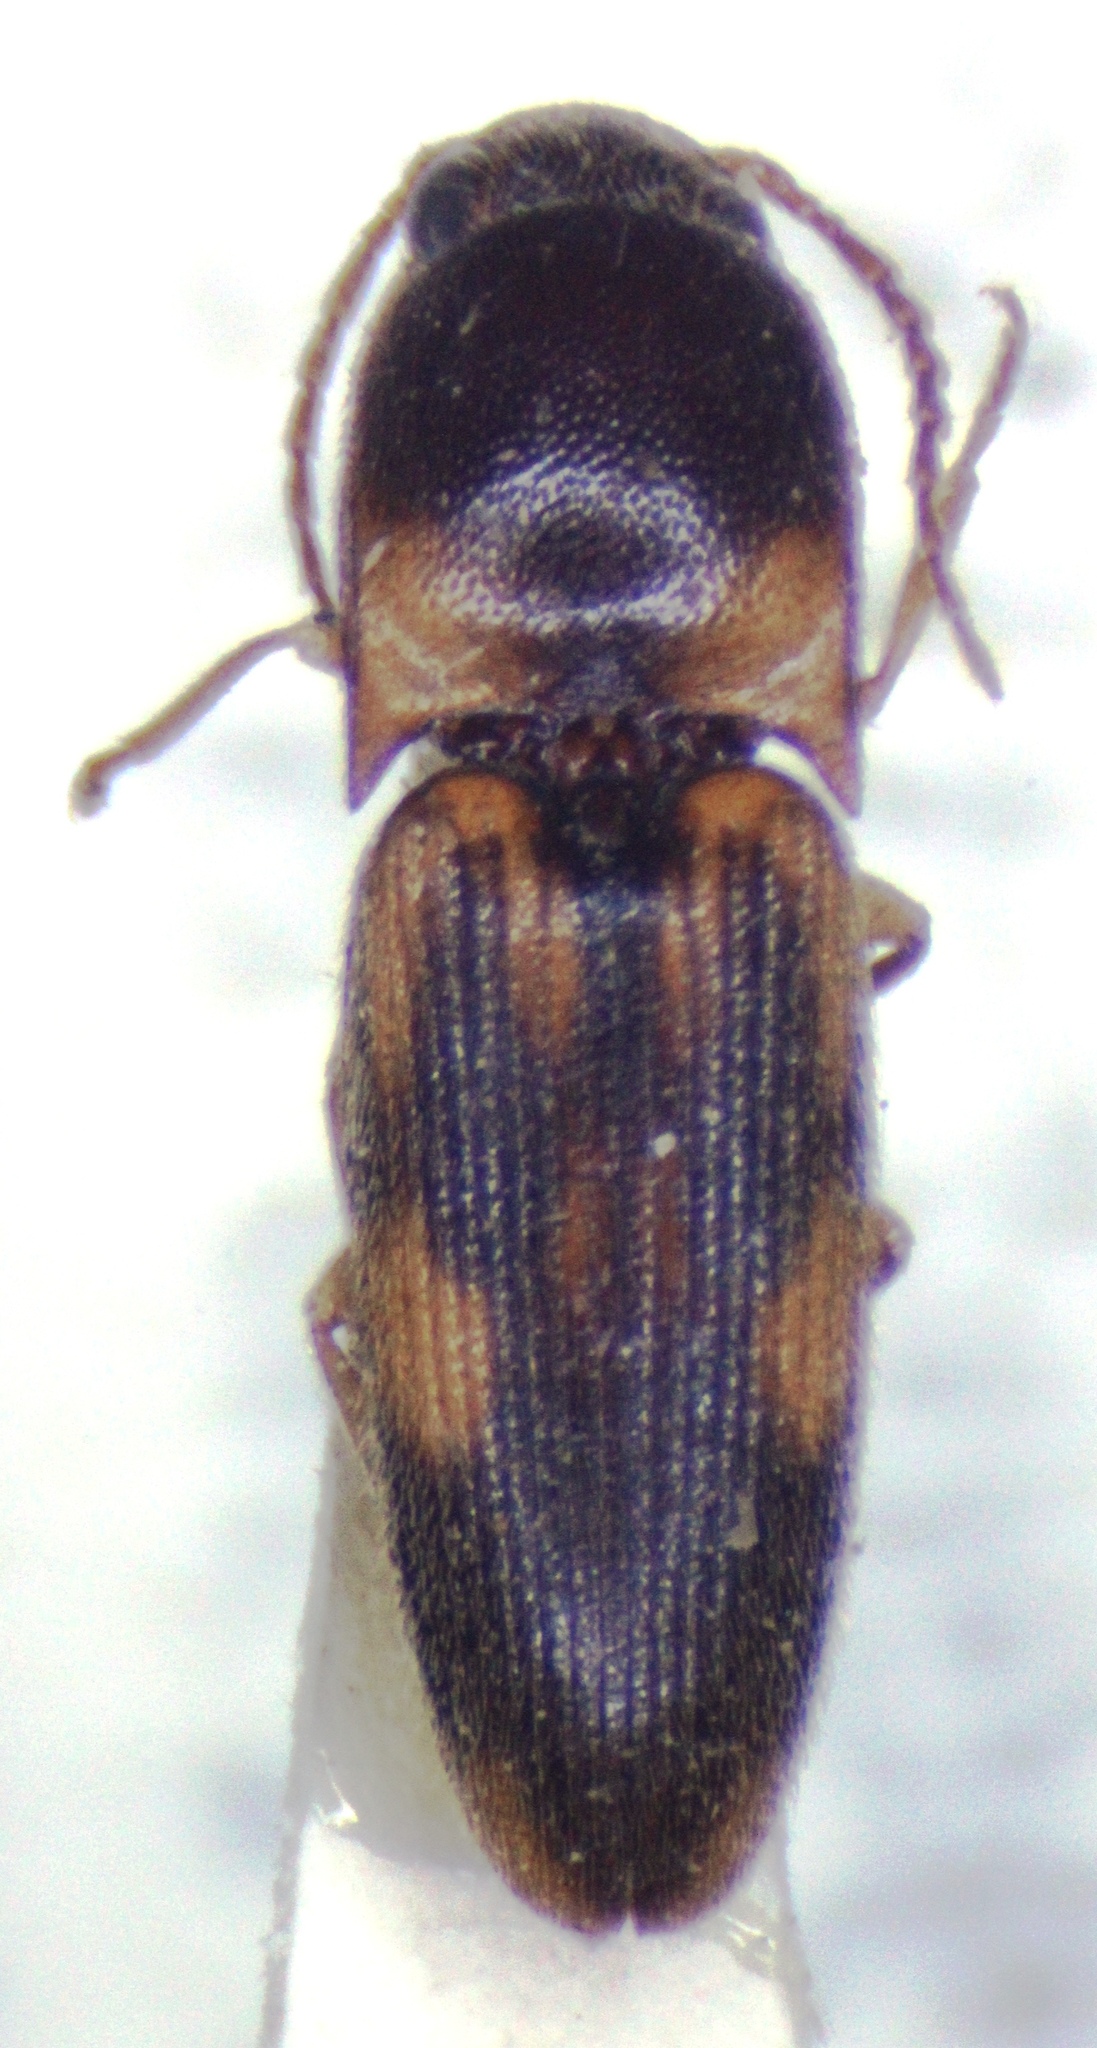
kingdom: Animalia
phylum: Arthropoda
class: Insecta
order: Coleoptera
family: Elateridae
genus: Monocrepidius
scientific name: Monocrepidius vartiani
